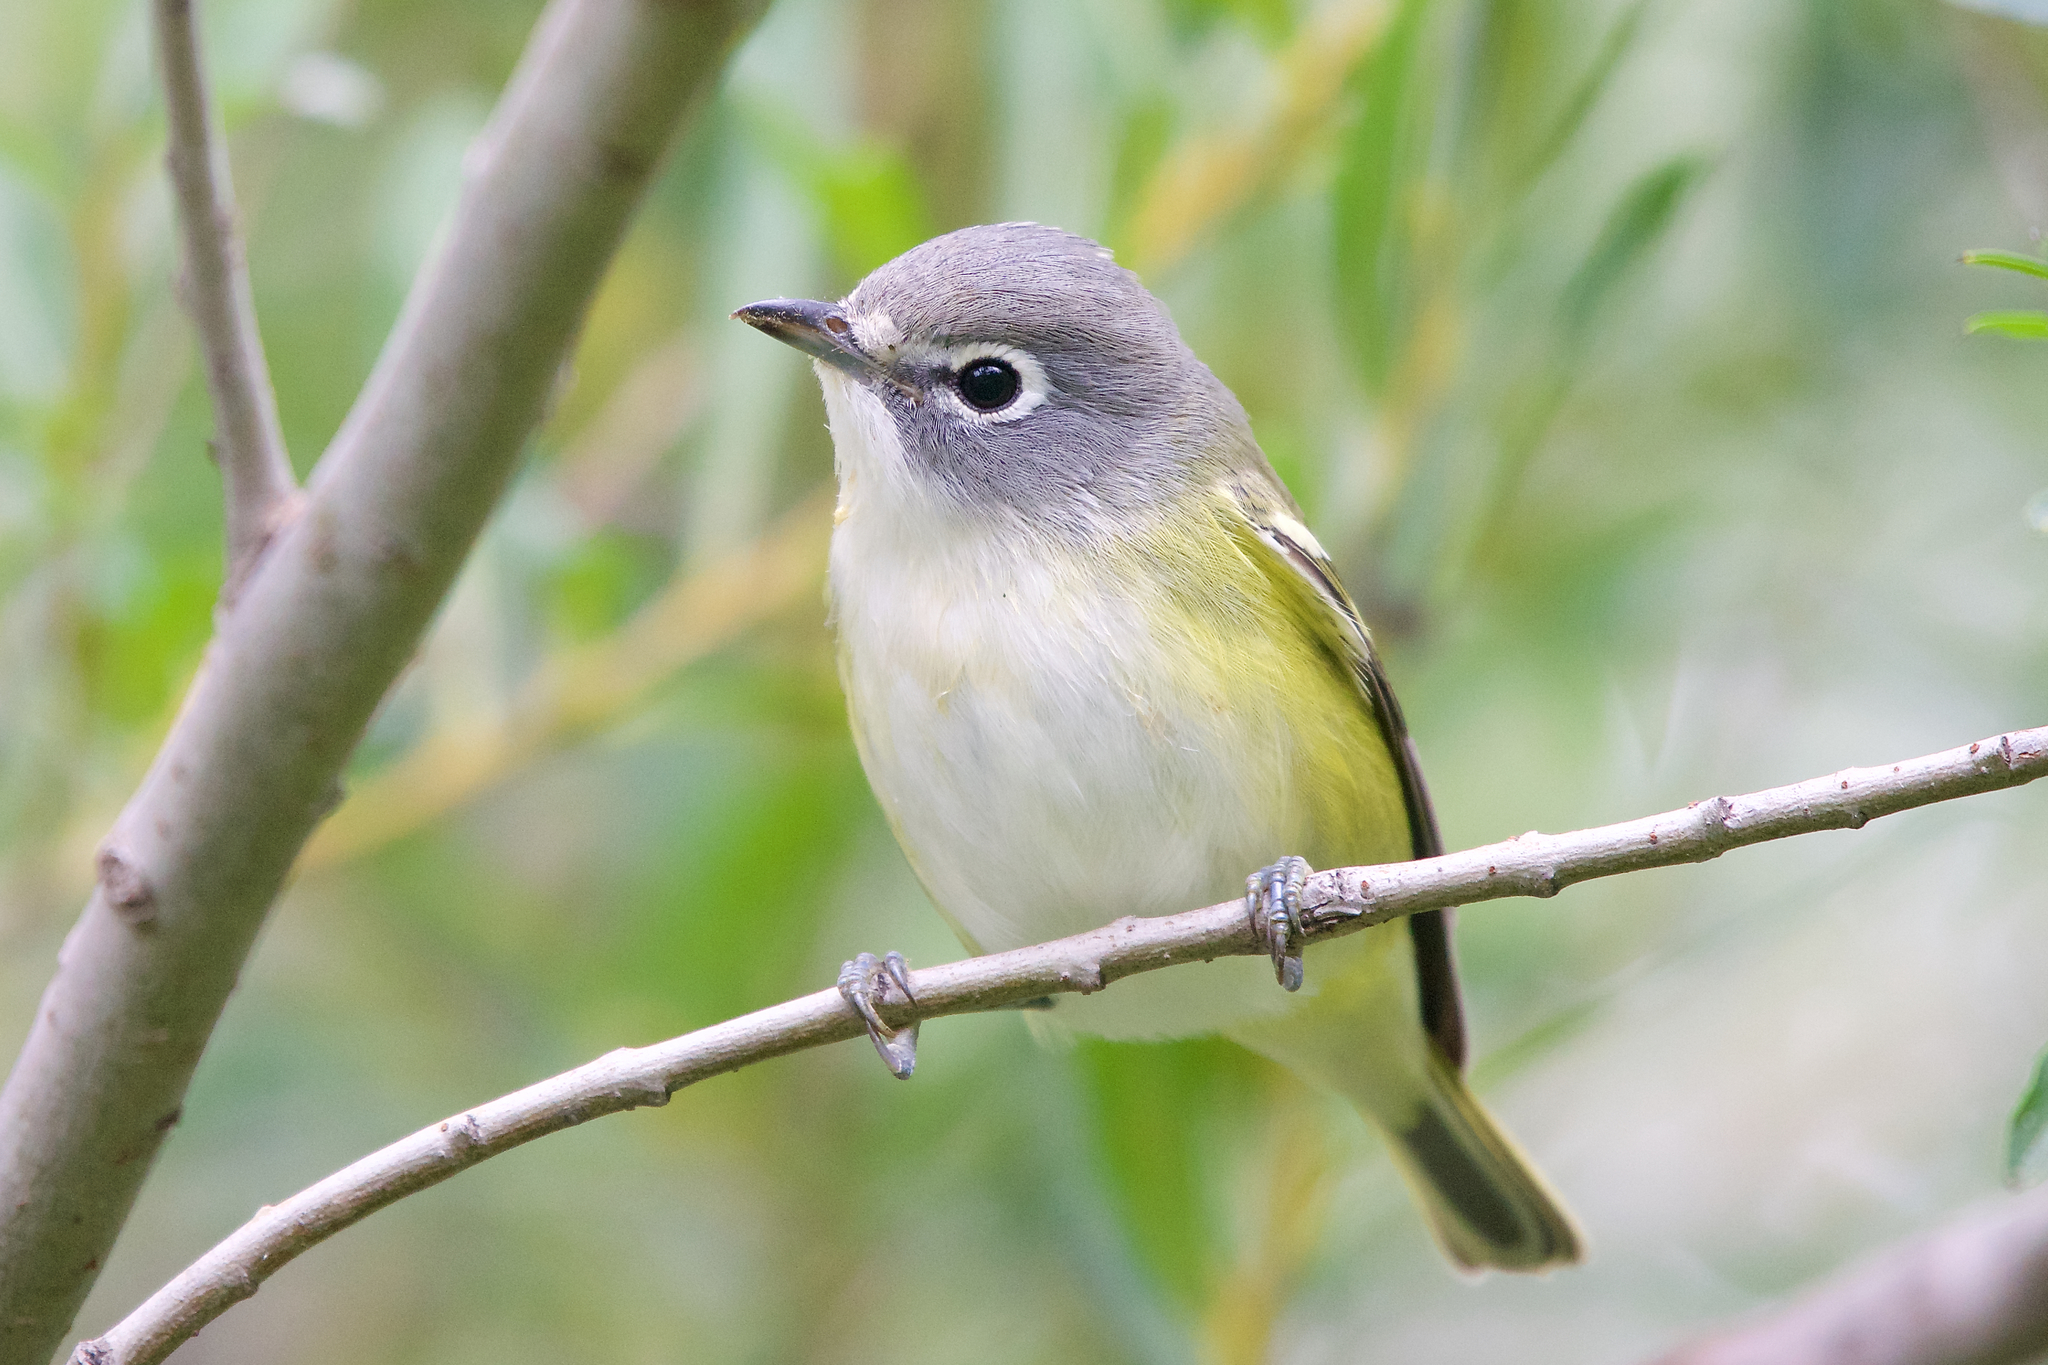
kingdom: Animalia
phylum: Chordata
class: Aves
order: Passeriformes
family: Vireonidae
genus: Vireo
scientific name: Vireo solitarius
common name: Blue-headed vireo
